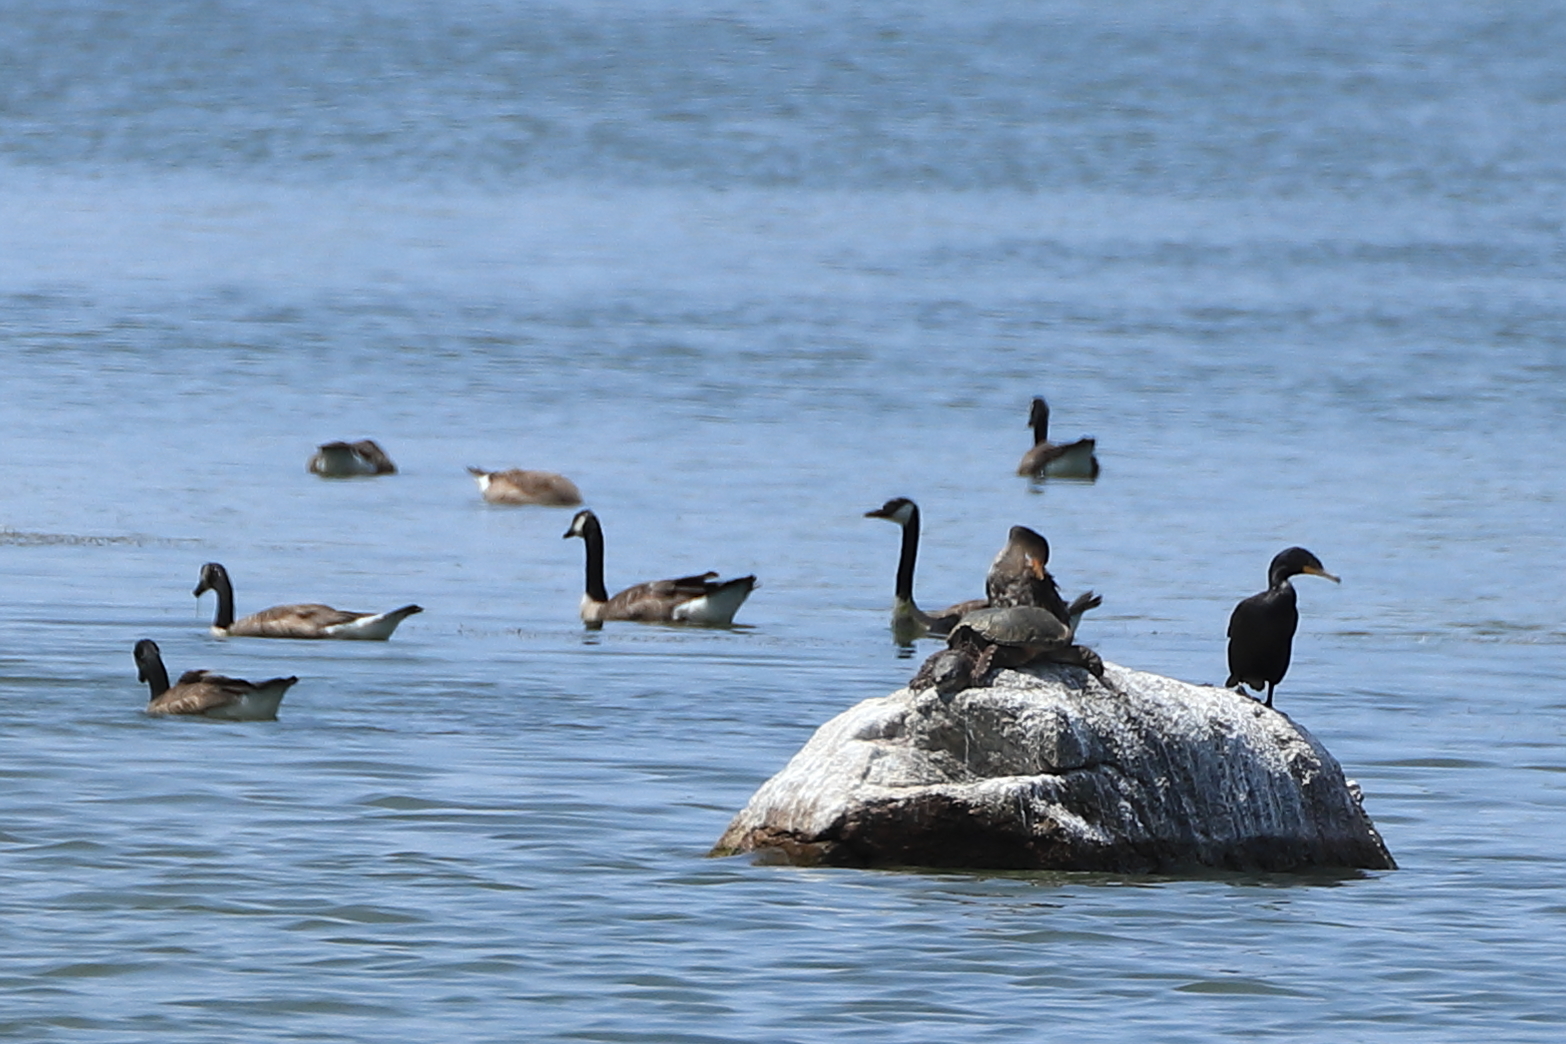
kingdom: Animalia
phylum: Chordata
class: Testudines
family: Chelydridae
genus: Chelydra
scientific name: Chelydra serpentina
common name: Common snapping turtle
